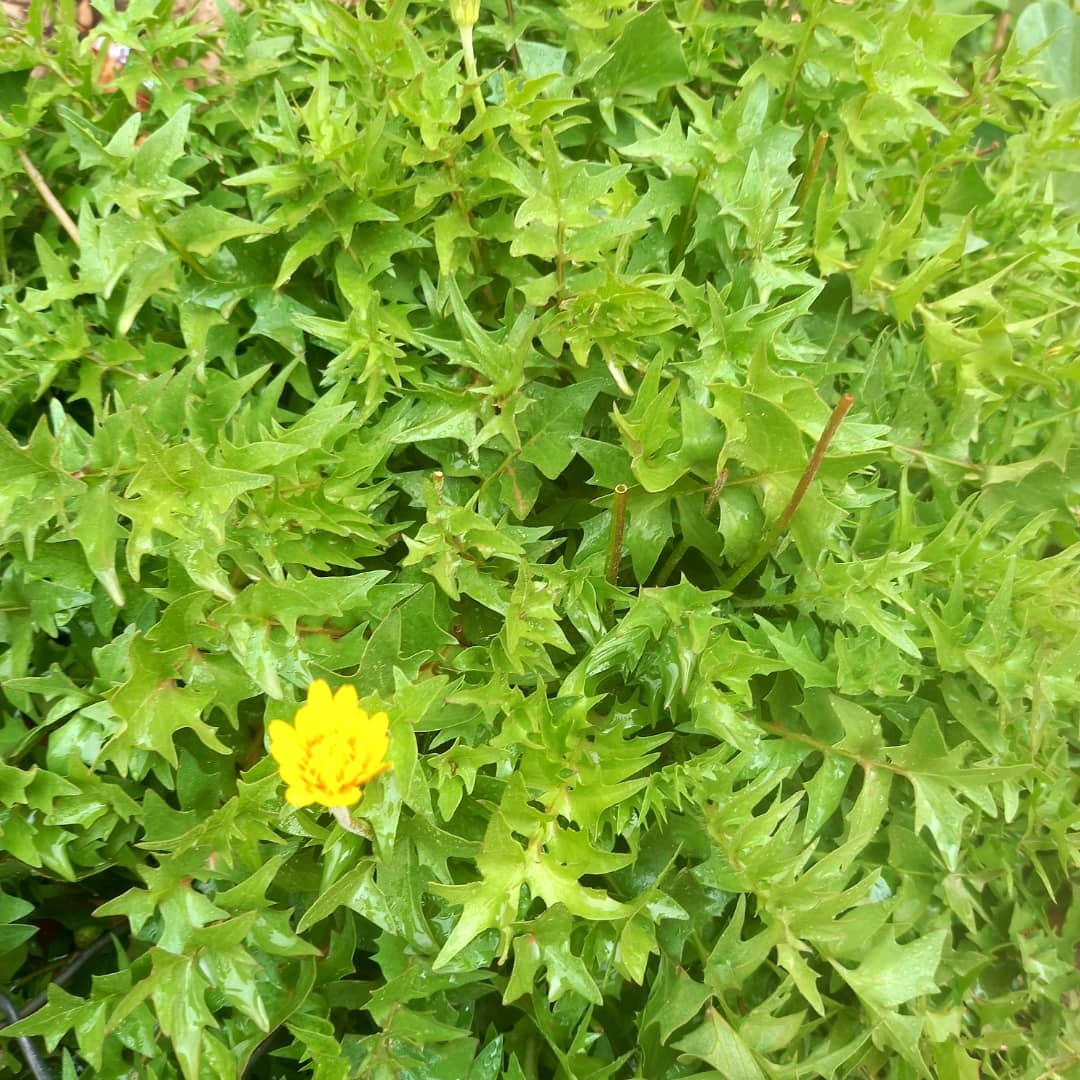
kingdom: Plantae
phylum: Tracheophyta
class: Magnoliopsida
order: Asterales
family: Asteraceae
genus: Hyoseris
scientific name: Hyoseris radiata
